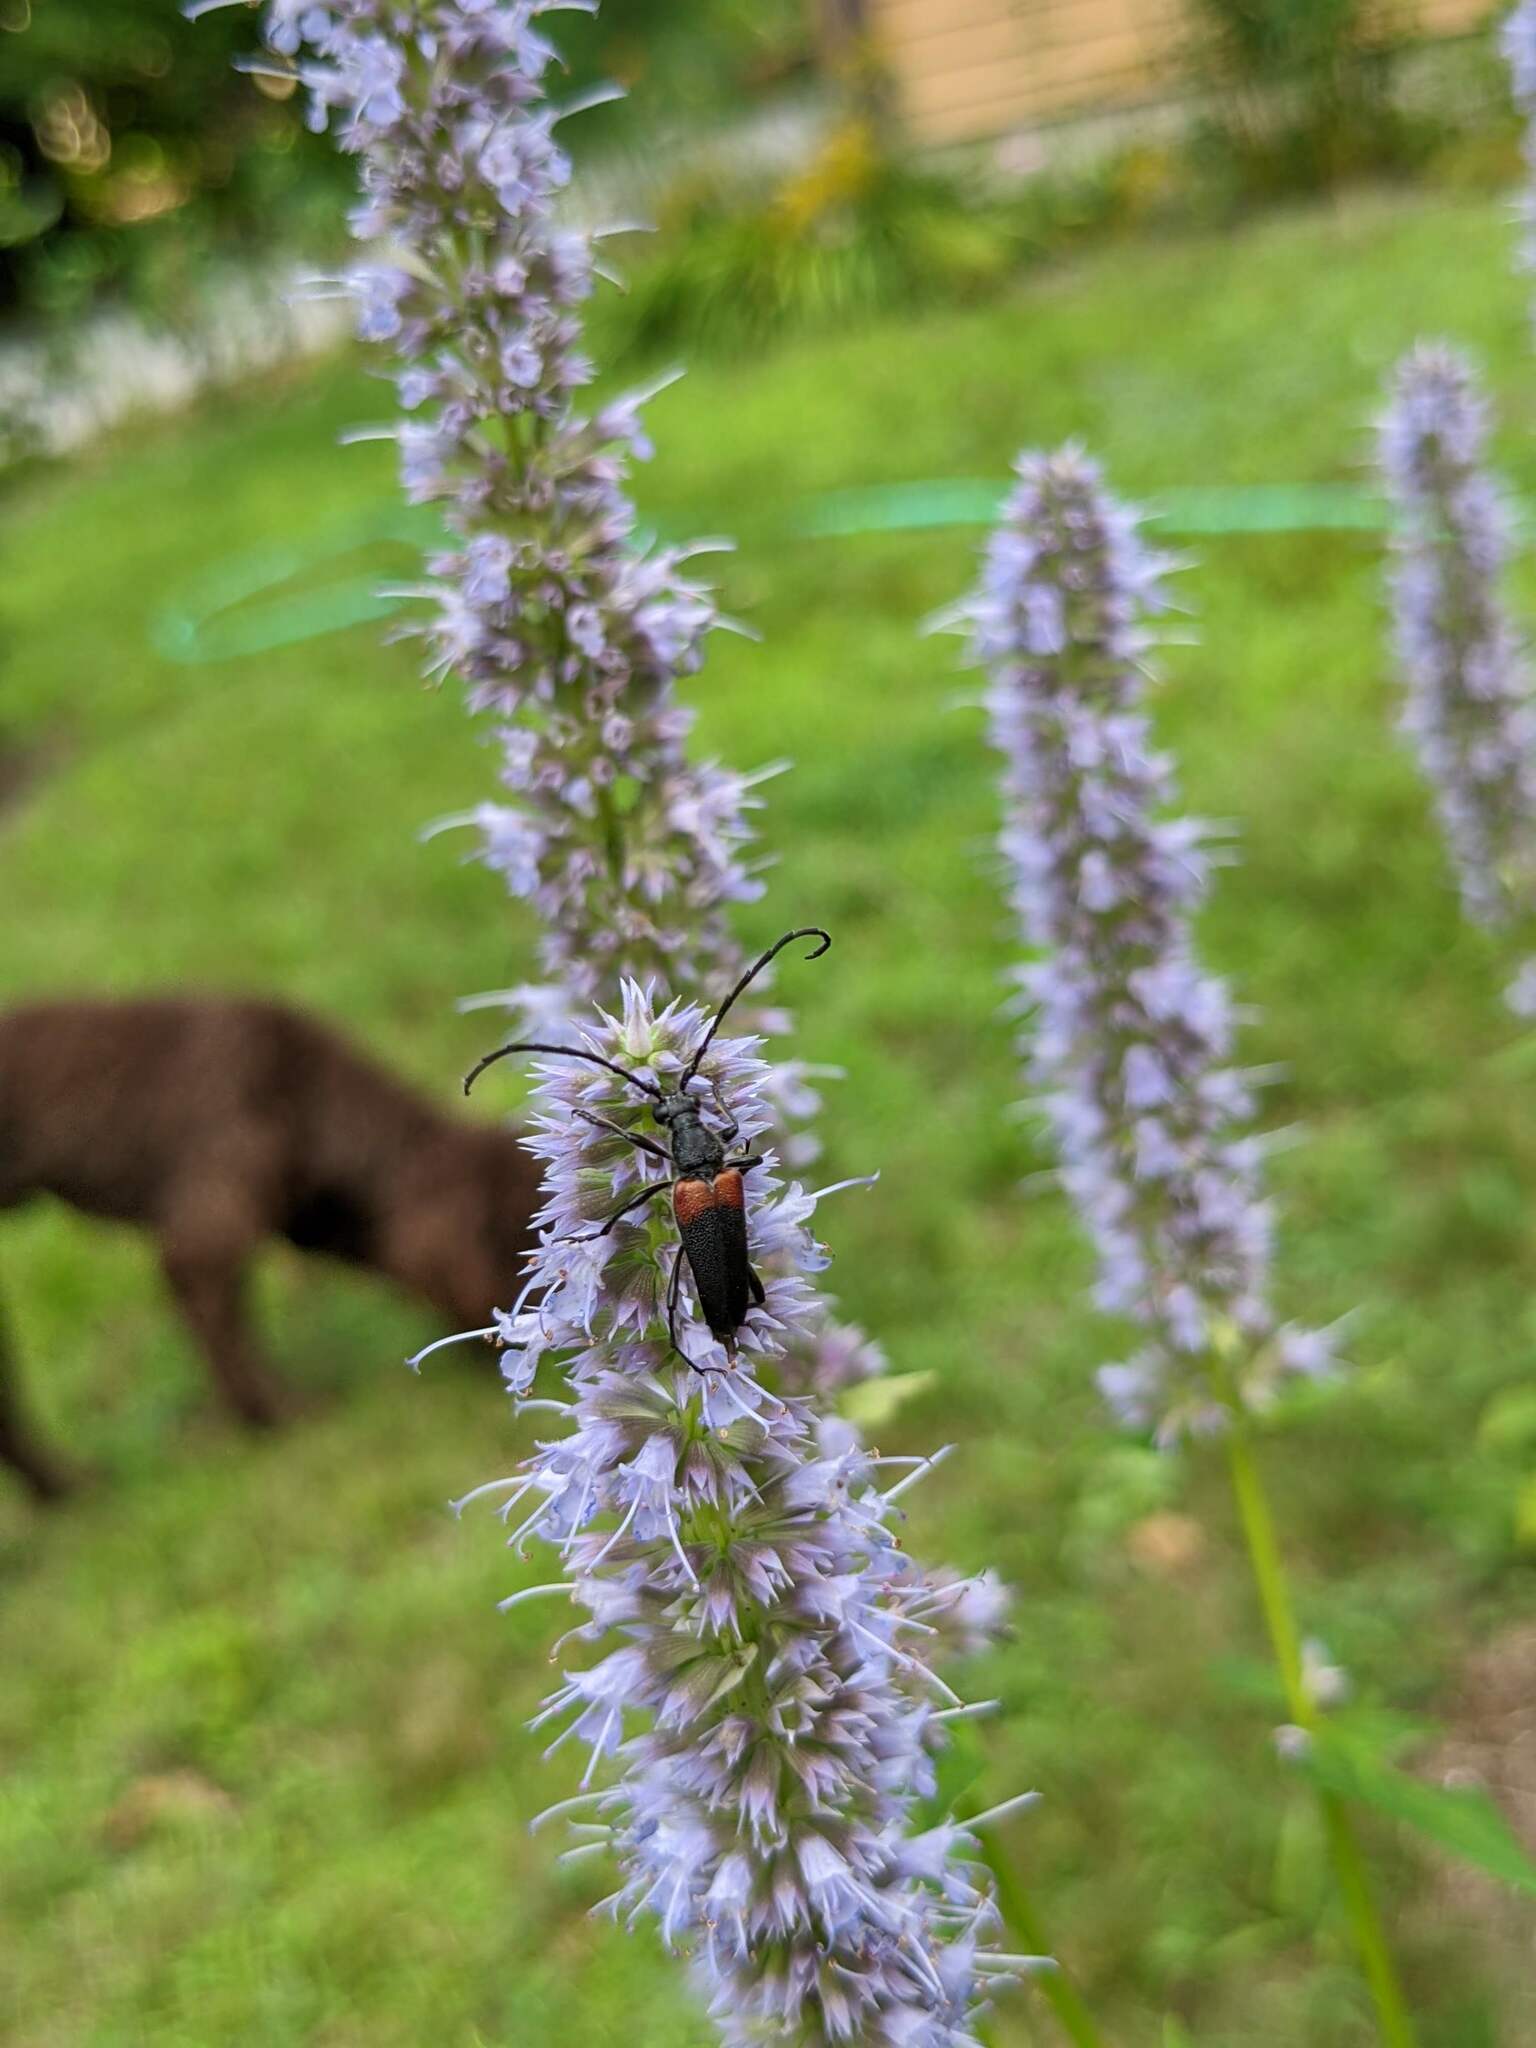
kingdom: Animalia
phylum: Arthropoda
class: Insecta
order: Coleoptera
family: Cerambycidae
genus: Stictoleptura
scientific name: Stictoleptura canadensis
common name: Red-shouldered pine borer
